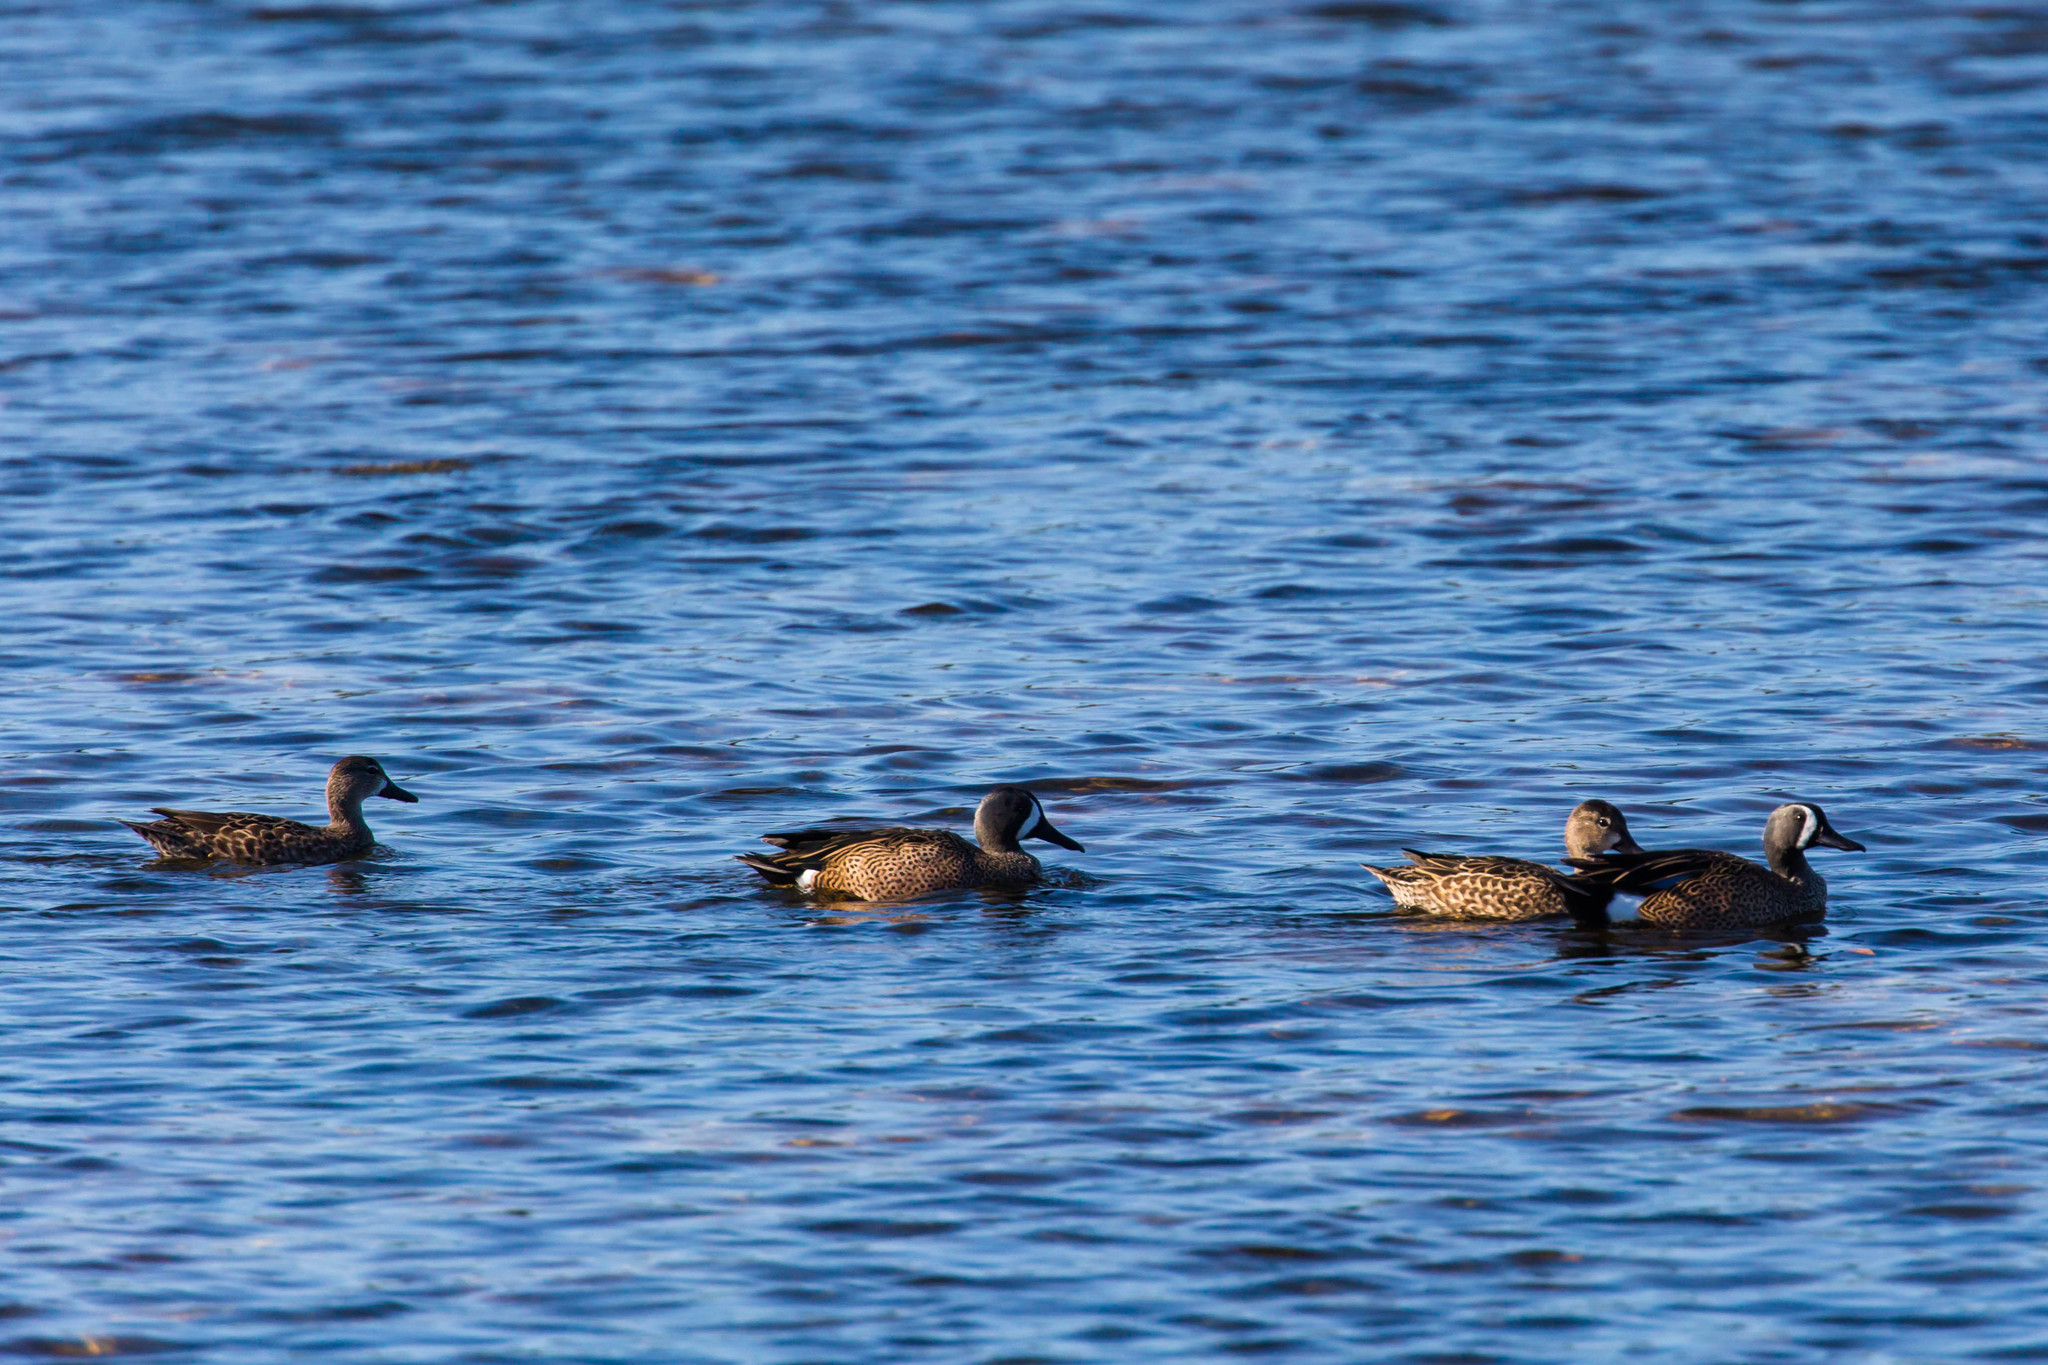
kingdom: Animalia
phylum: Chordata
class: Aves
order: Anseriformes
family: Anatidae
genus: Spatula
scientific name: Spatula discors
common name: Blue-winged teal
